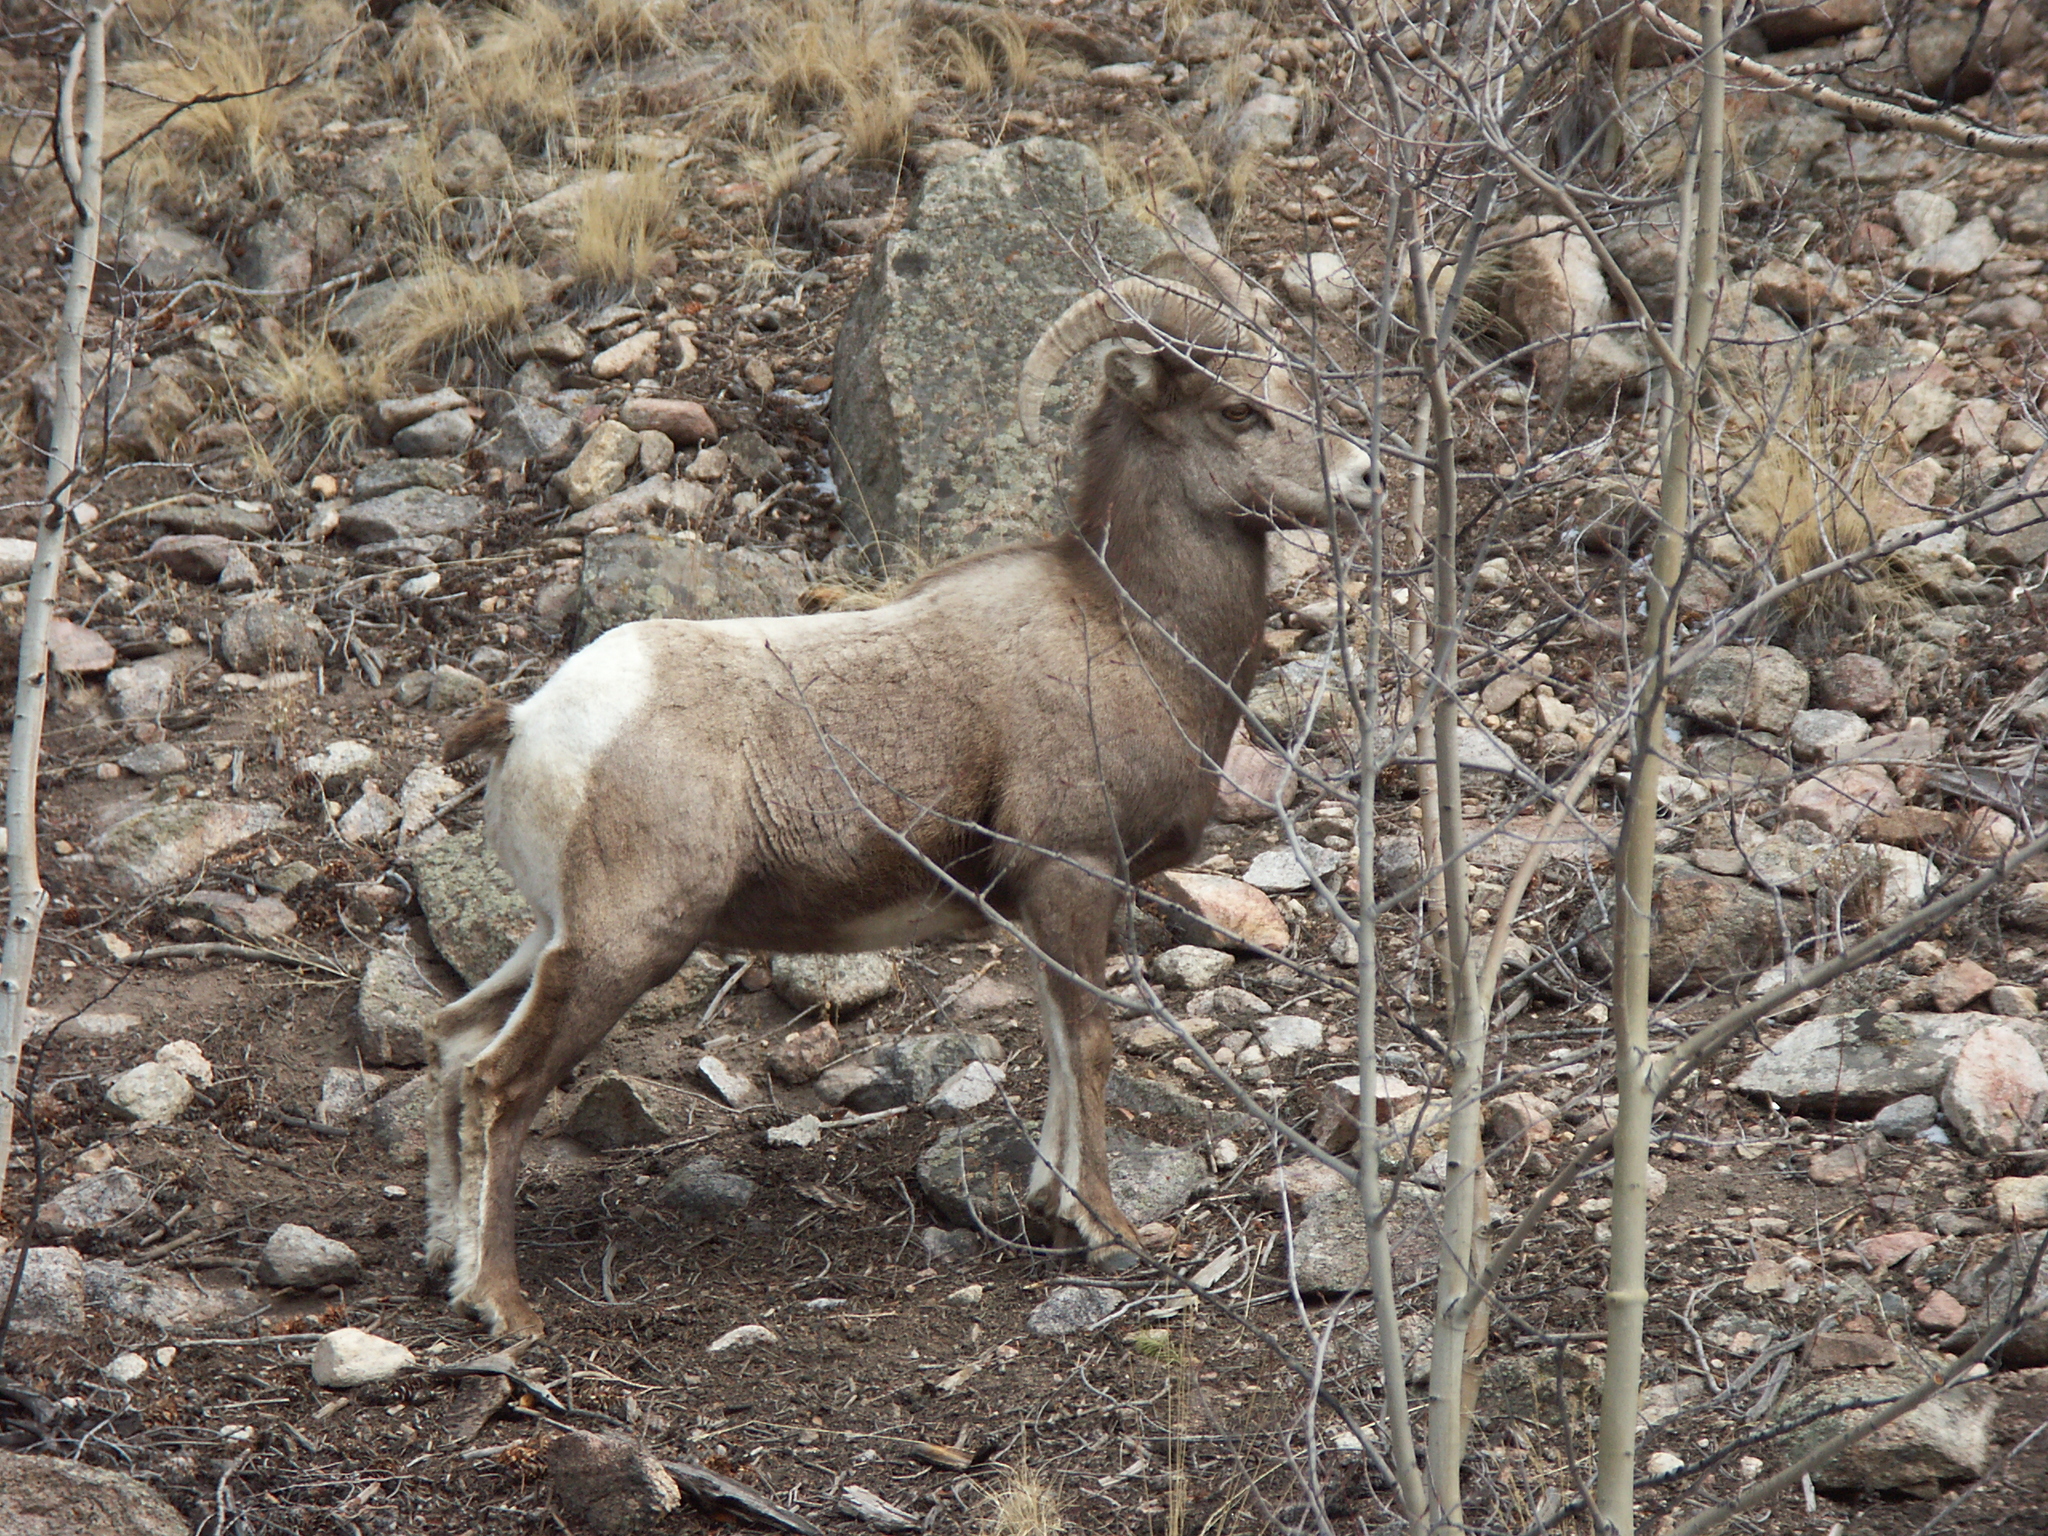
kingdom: Animalia
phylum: Chordata
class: Mammalia
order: Artiodactyla
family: Bovidae
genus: Ovis
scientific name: Ovis canadensis
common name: Bighorn sheep
